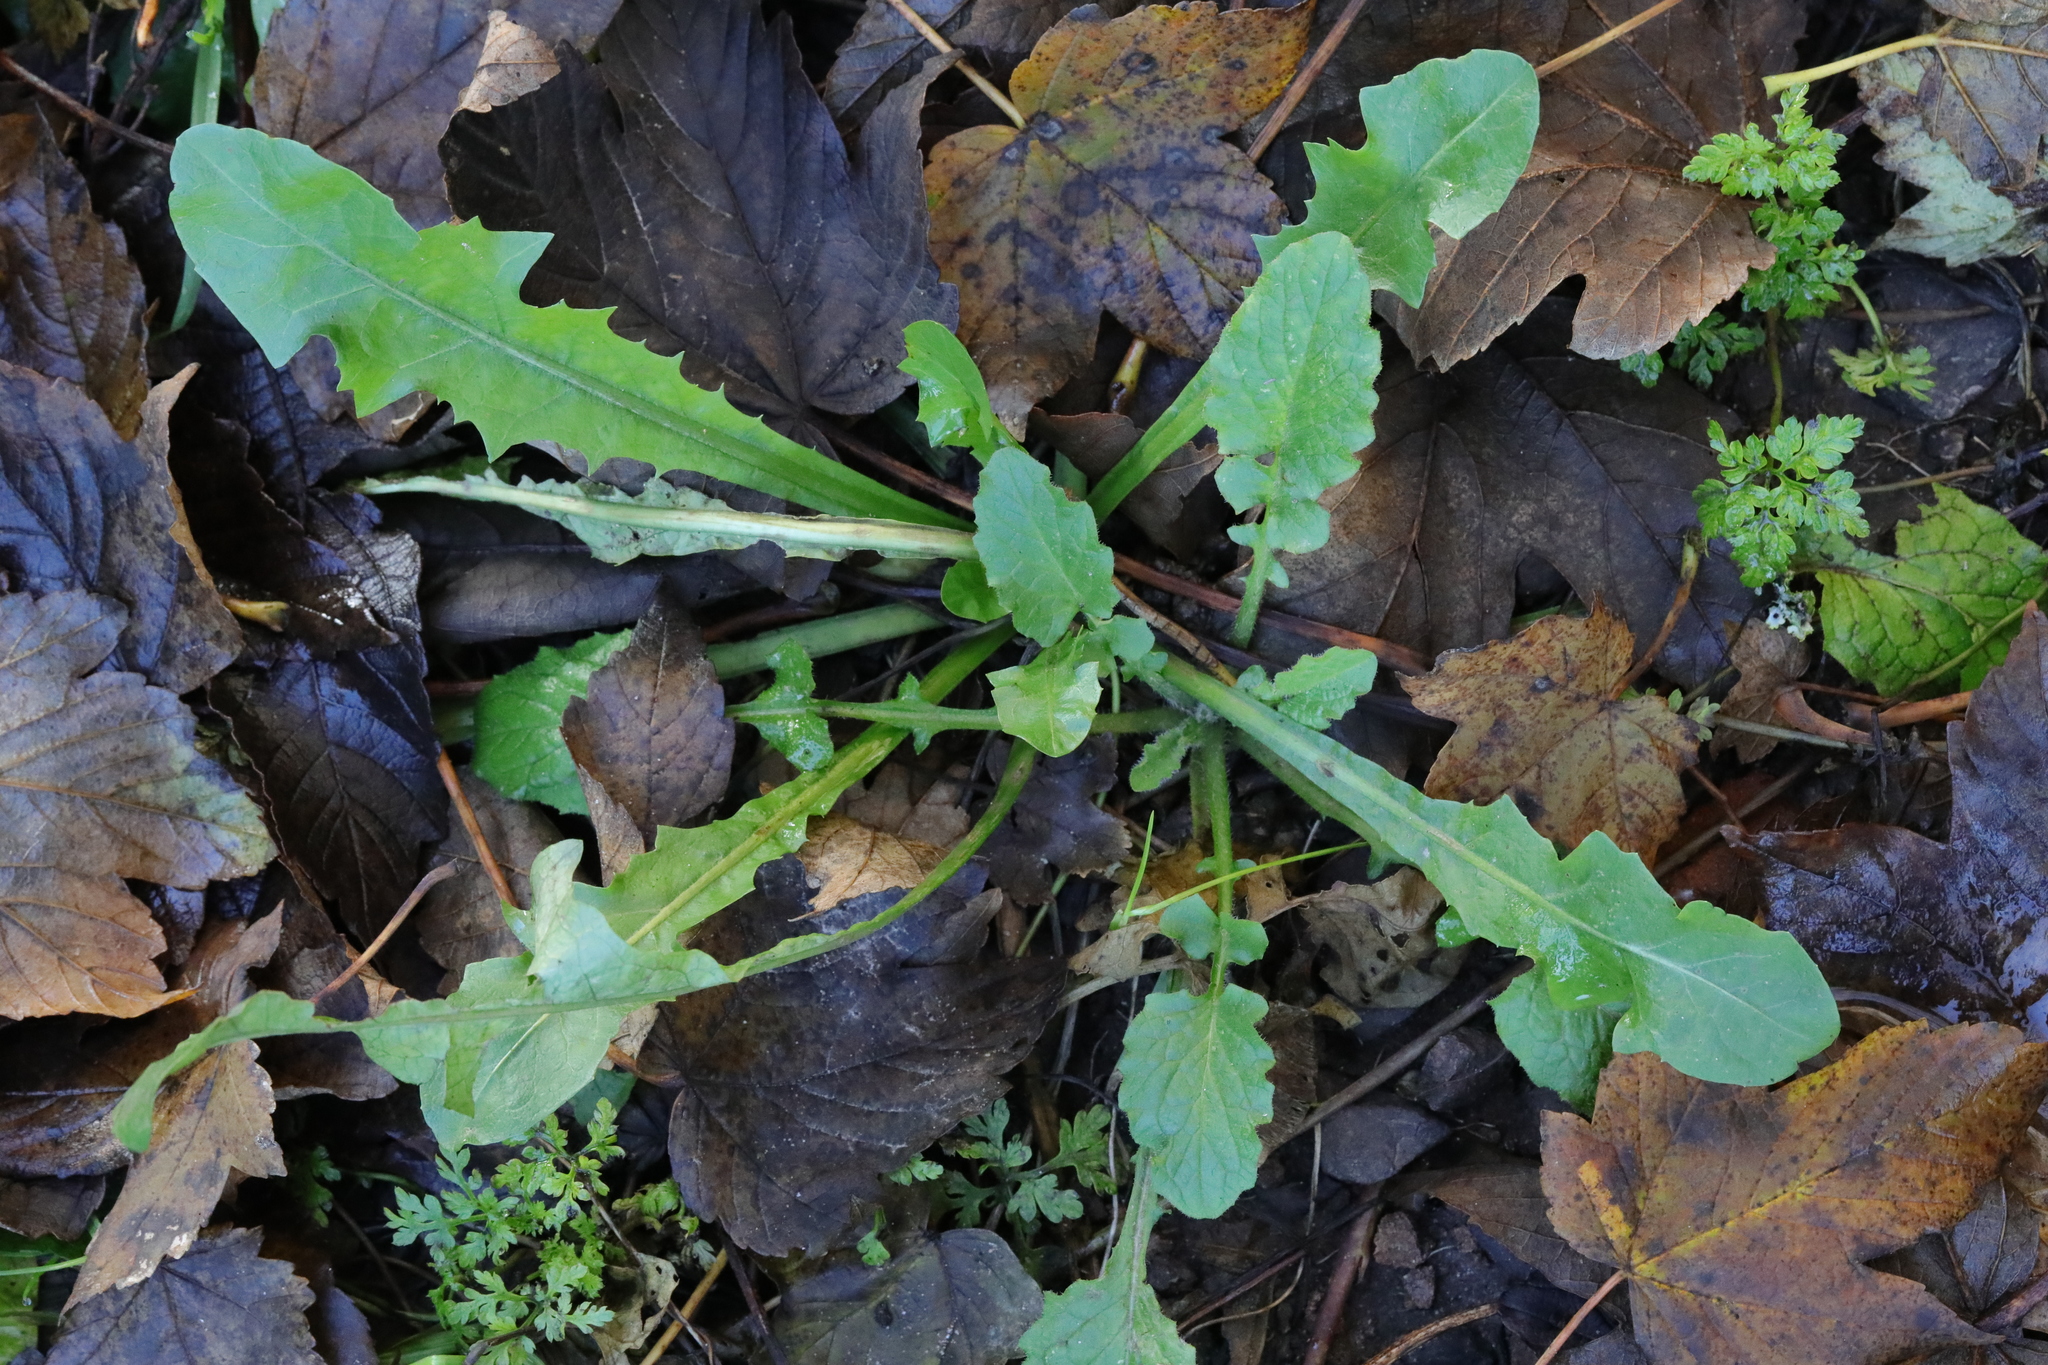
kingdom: Plantae
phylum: Tracheophyta
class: Magnoliopsida
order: Asterales
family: Asteraceae
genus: Taraxacum
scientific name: Taraxacum officinale
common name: Common dandelion
